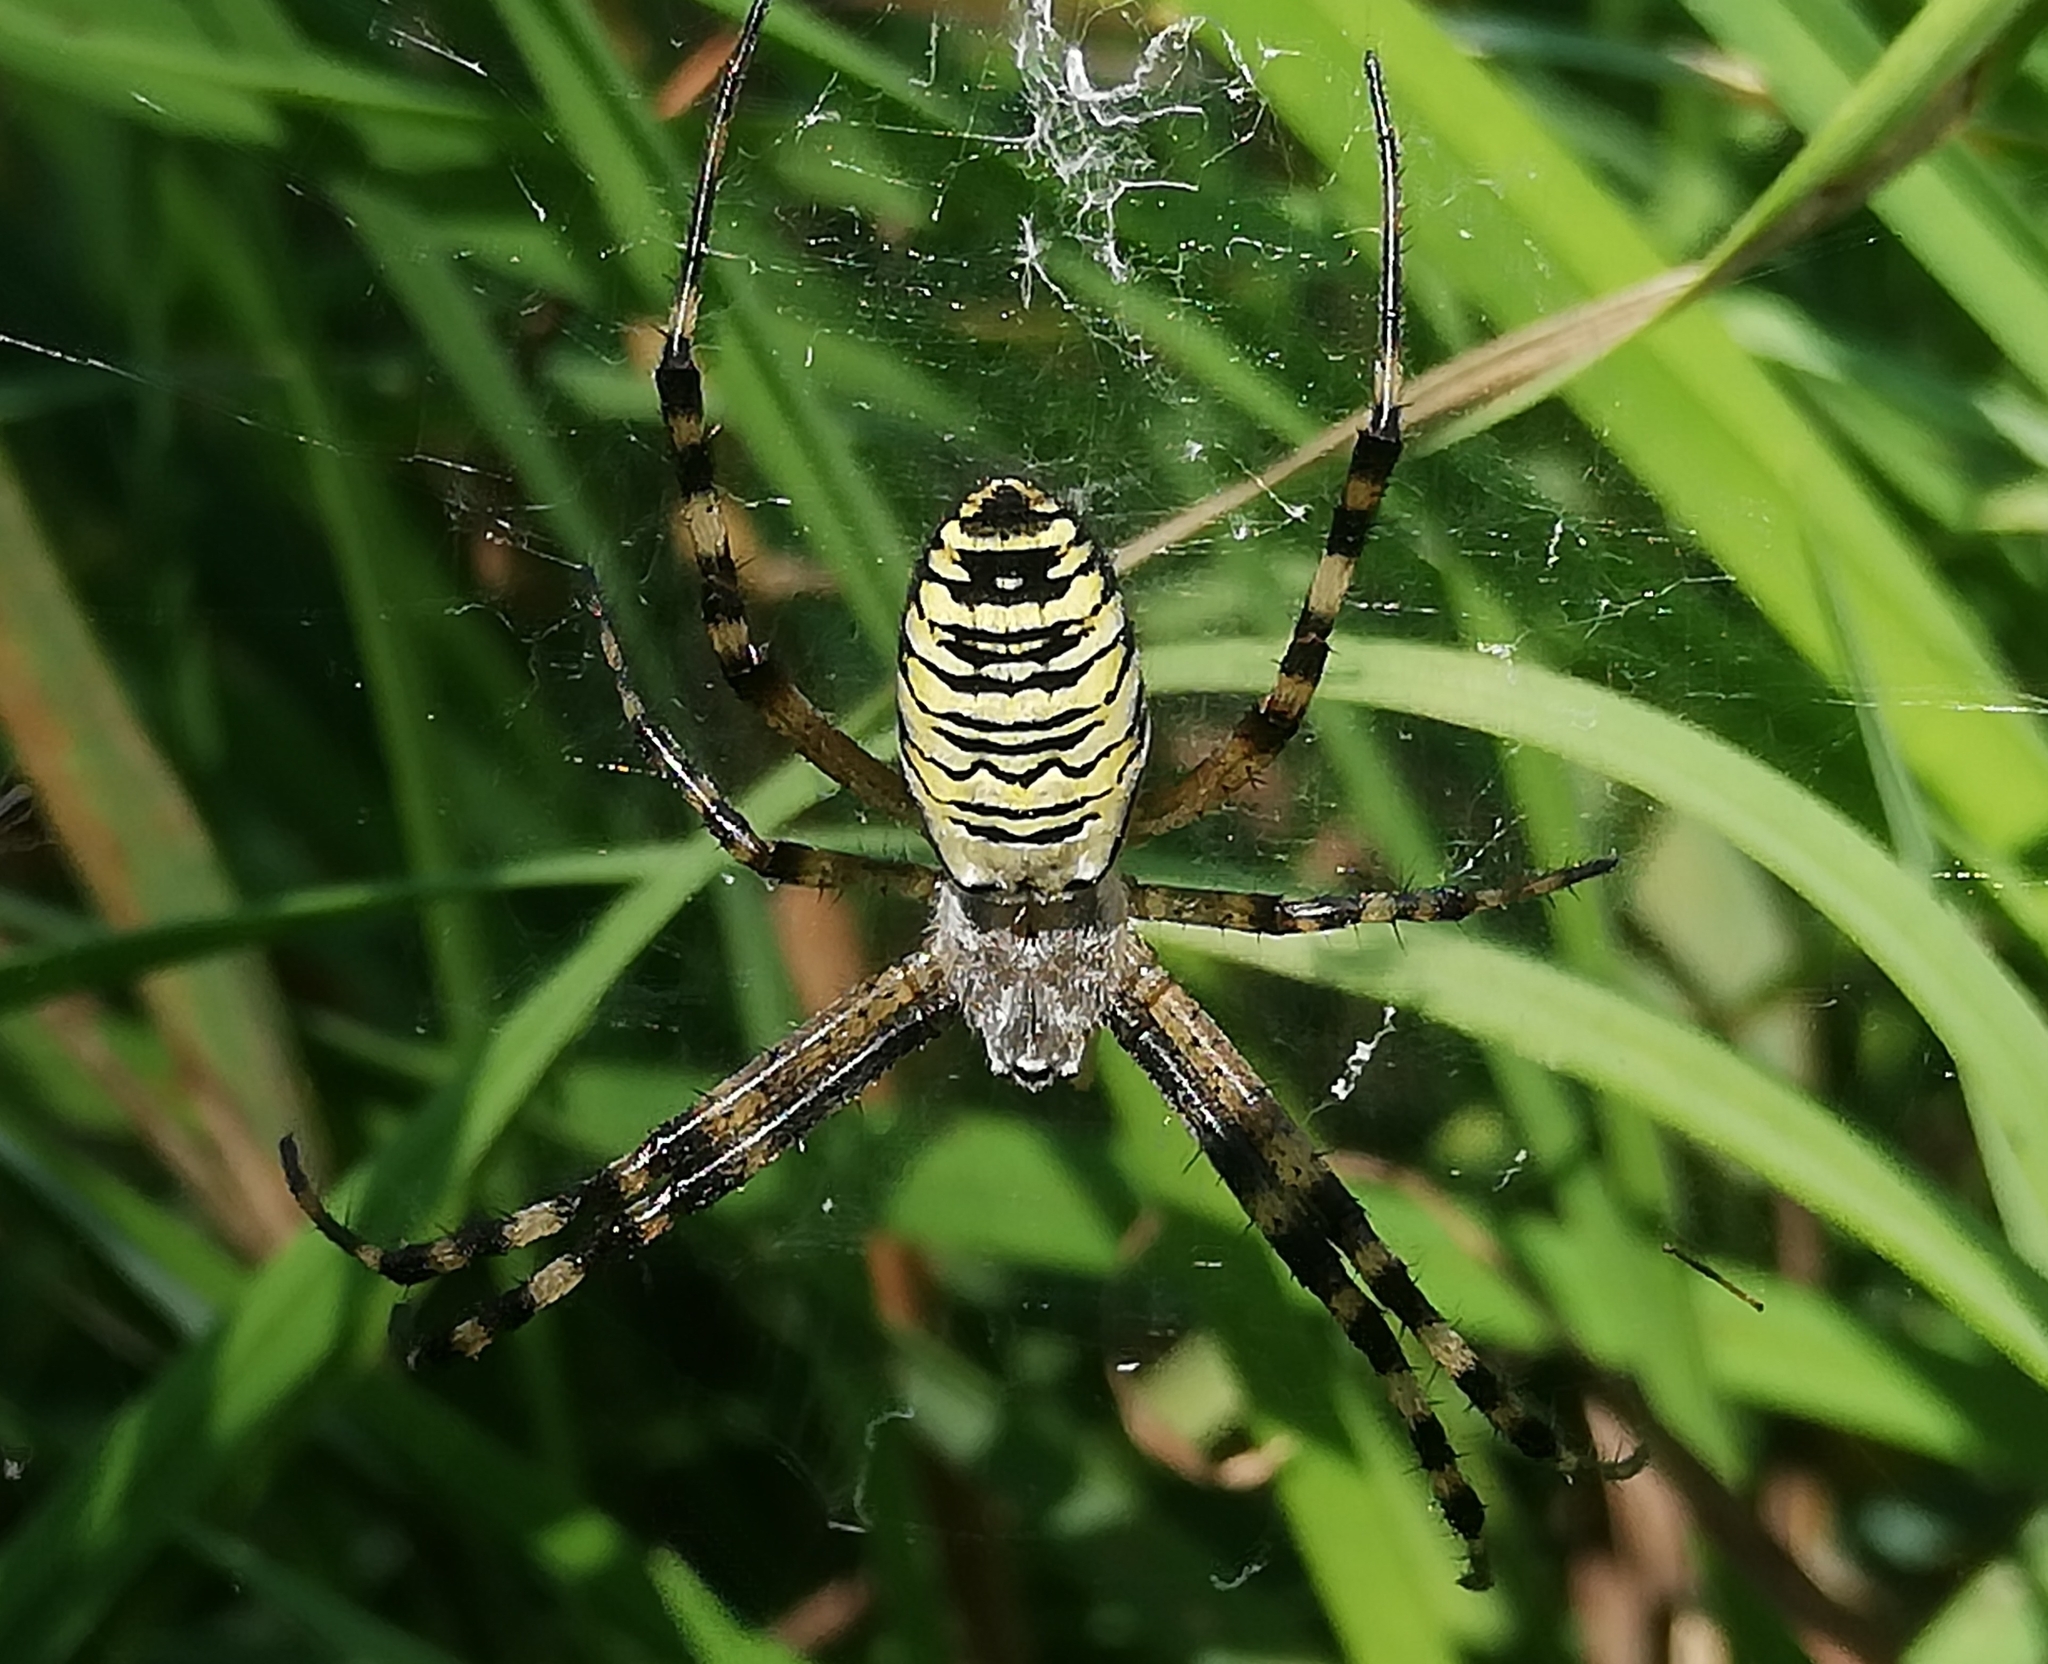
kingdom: Animalia
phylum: Arthropoda
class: Arachnida
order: Araneae
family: Araneidae
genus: Argiope
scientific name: Argiope bruennichi
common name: Wasp spider
